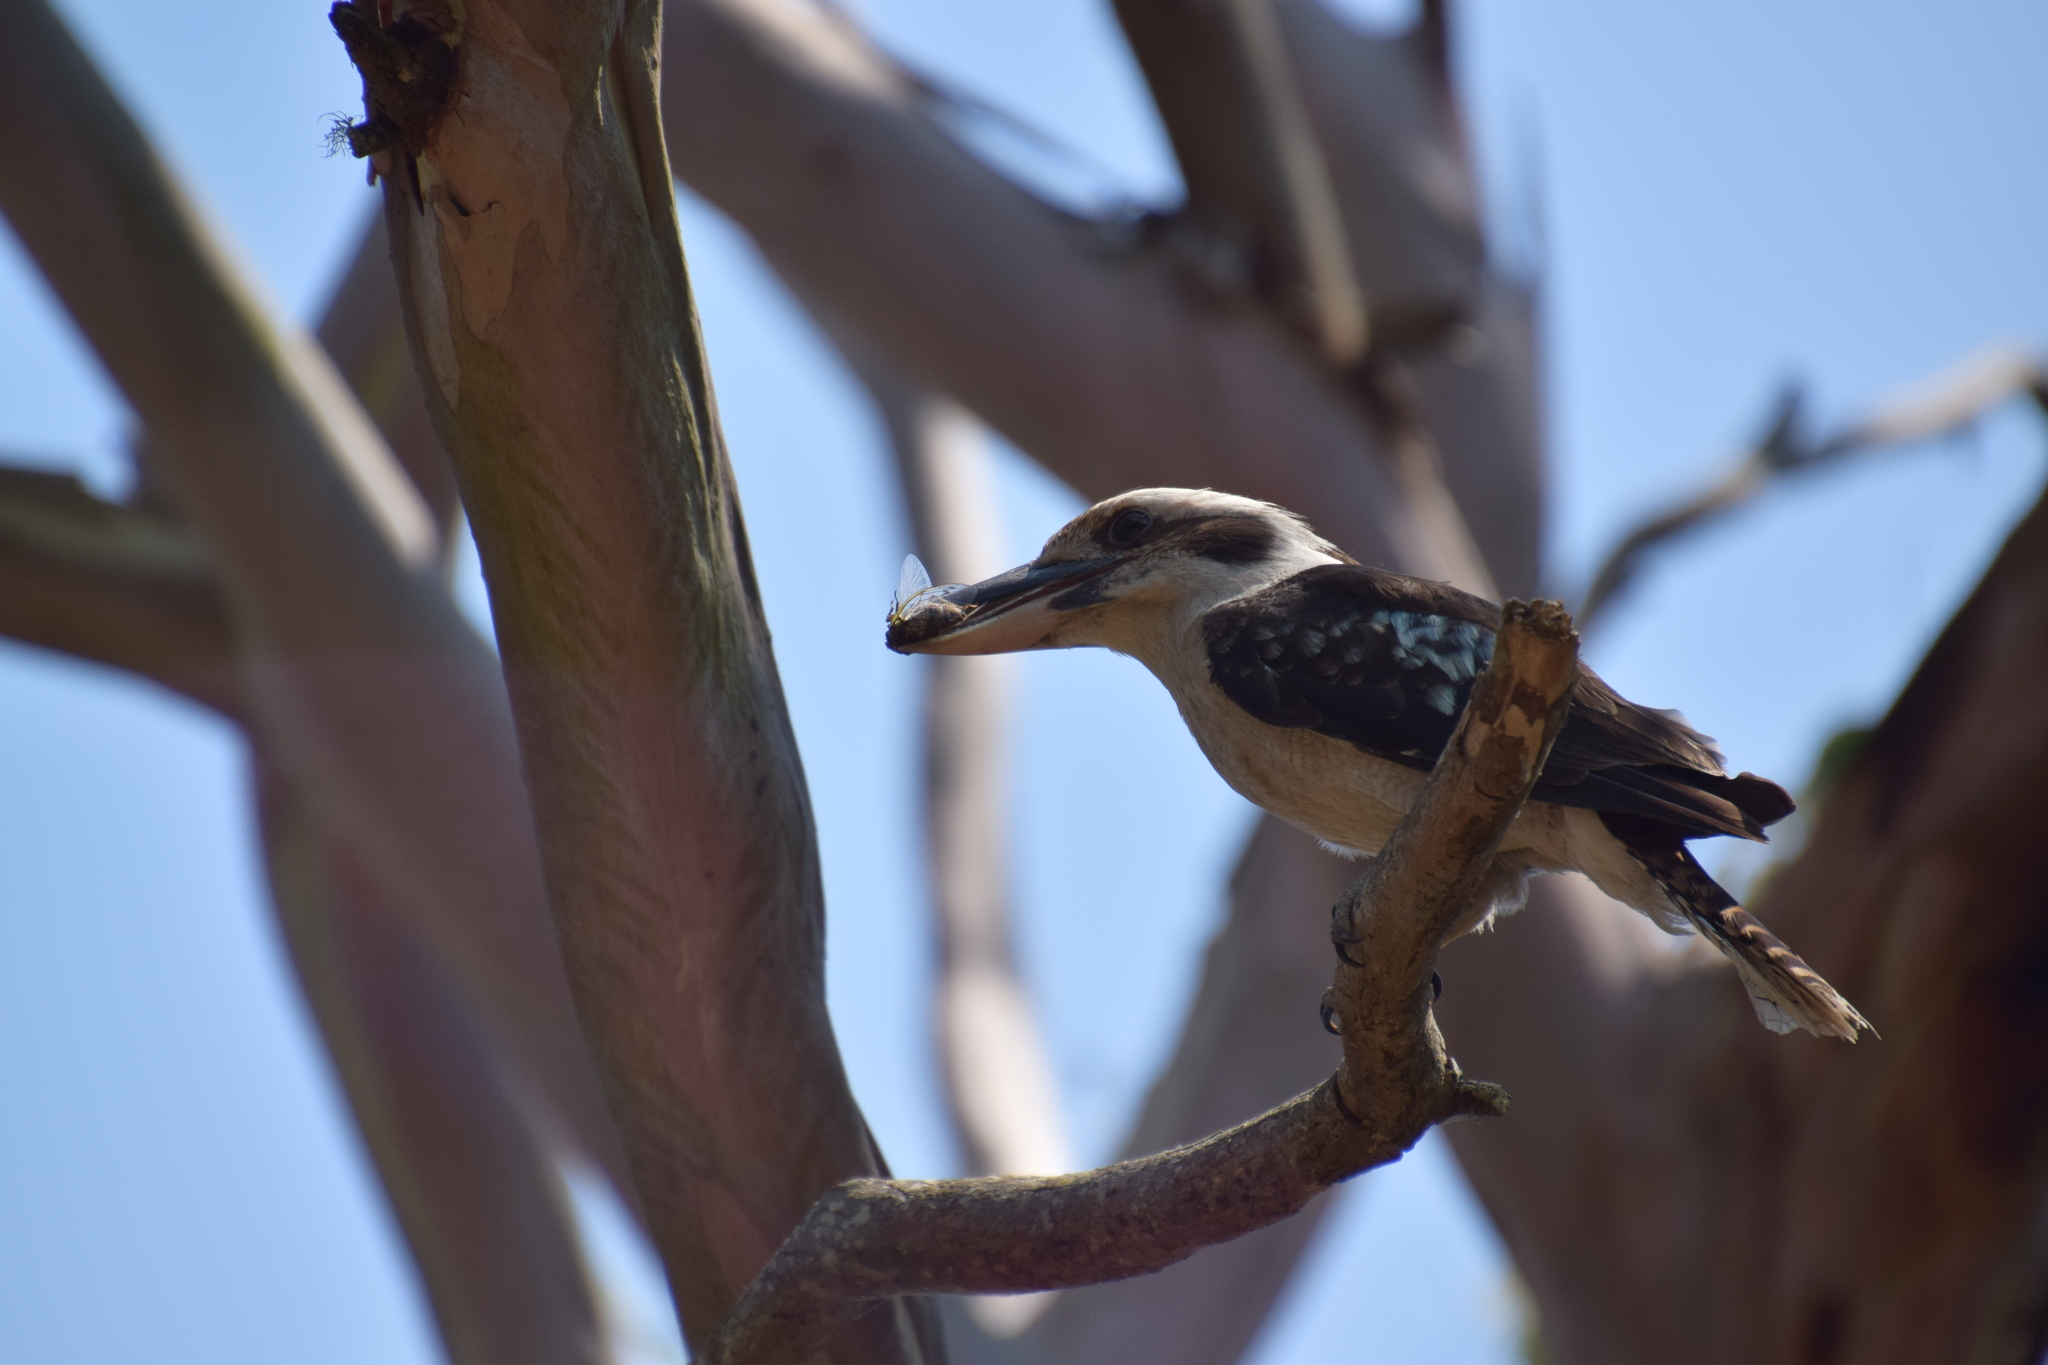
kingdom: Animalia
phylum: Chordata
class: Aves
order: Coraciiformes
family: Alcedinidae
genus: Dacelo
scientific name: Dacelo novaeguineae
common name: Laughing kookaburra
